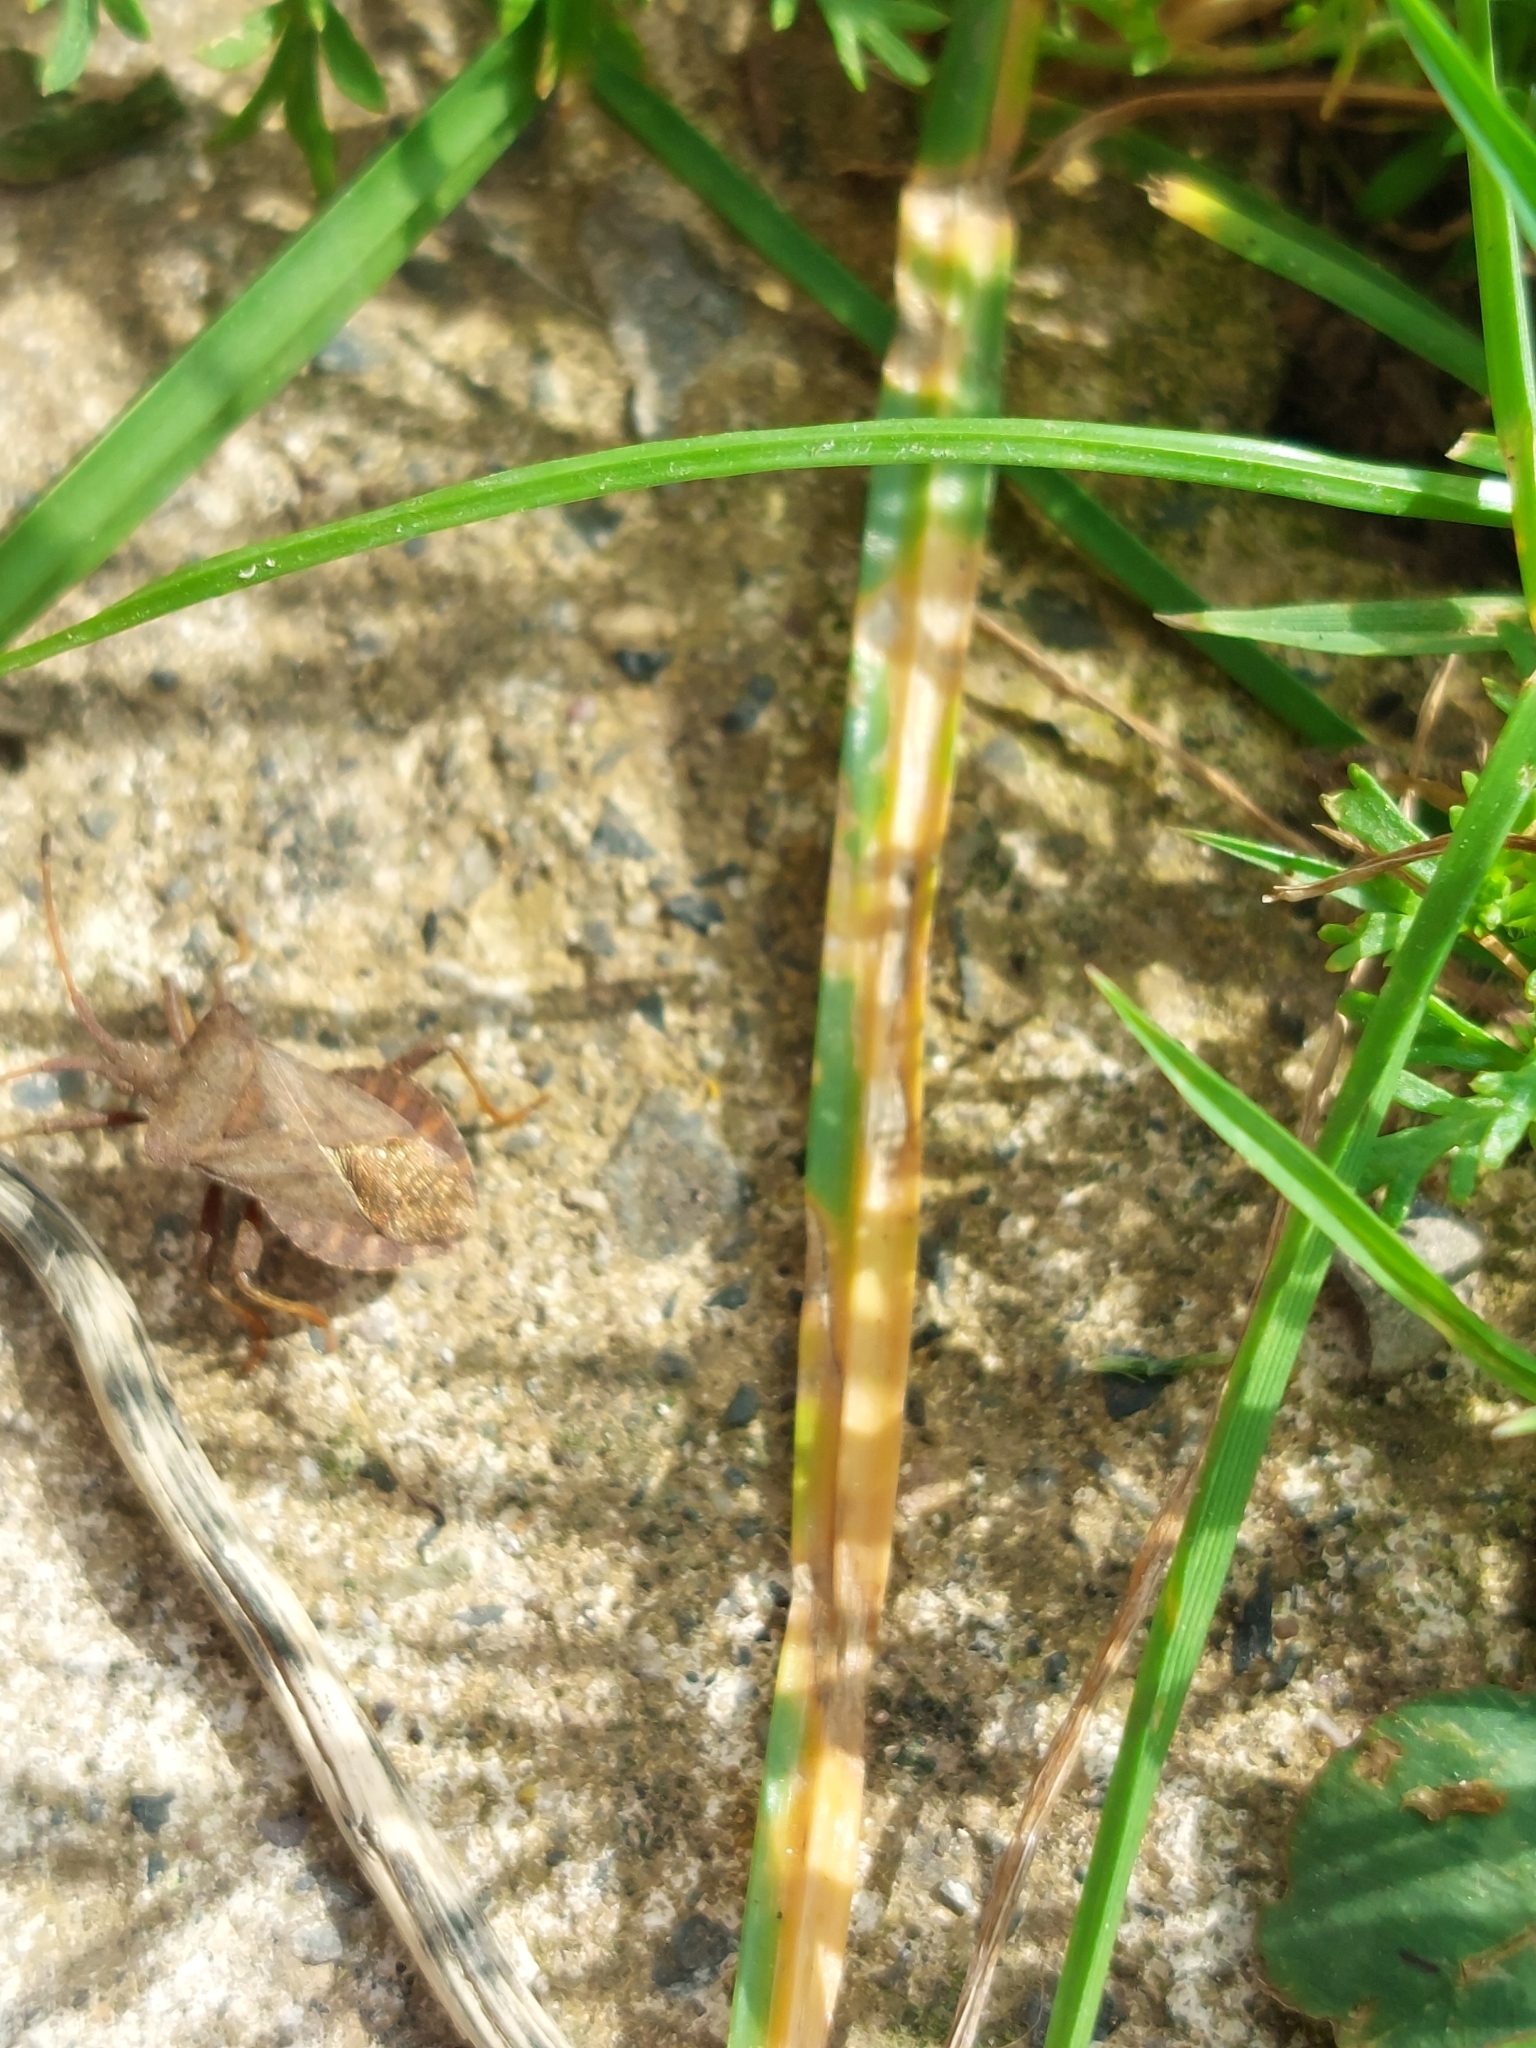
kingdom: Animalia
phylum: Arthropoda
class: Insecta
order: Hemiptera
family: Coreidae
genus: Coreus
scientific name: Coreus marginatus
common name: Dock bug
